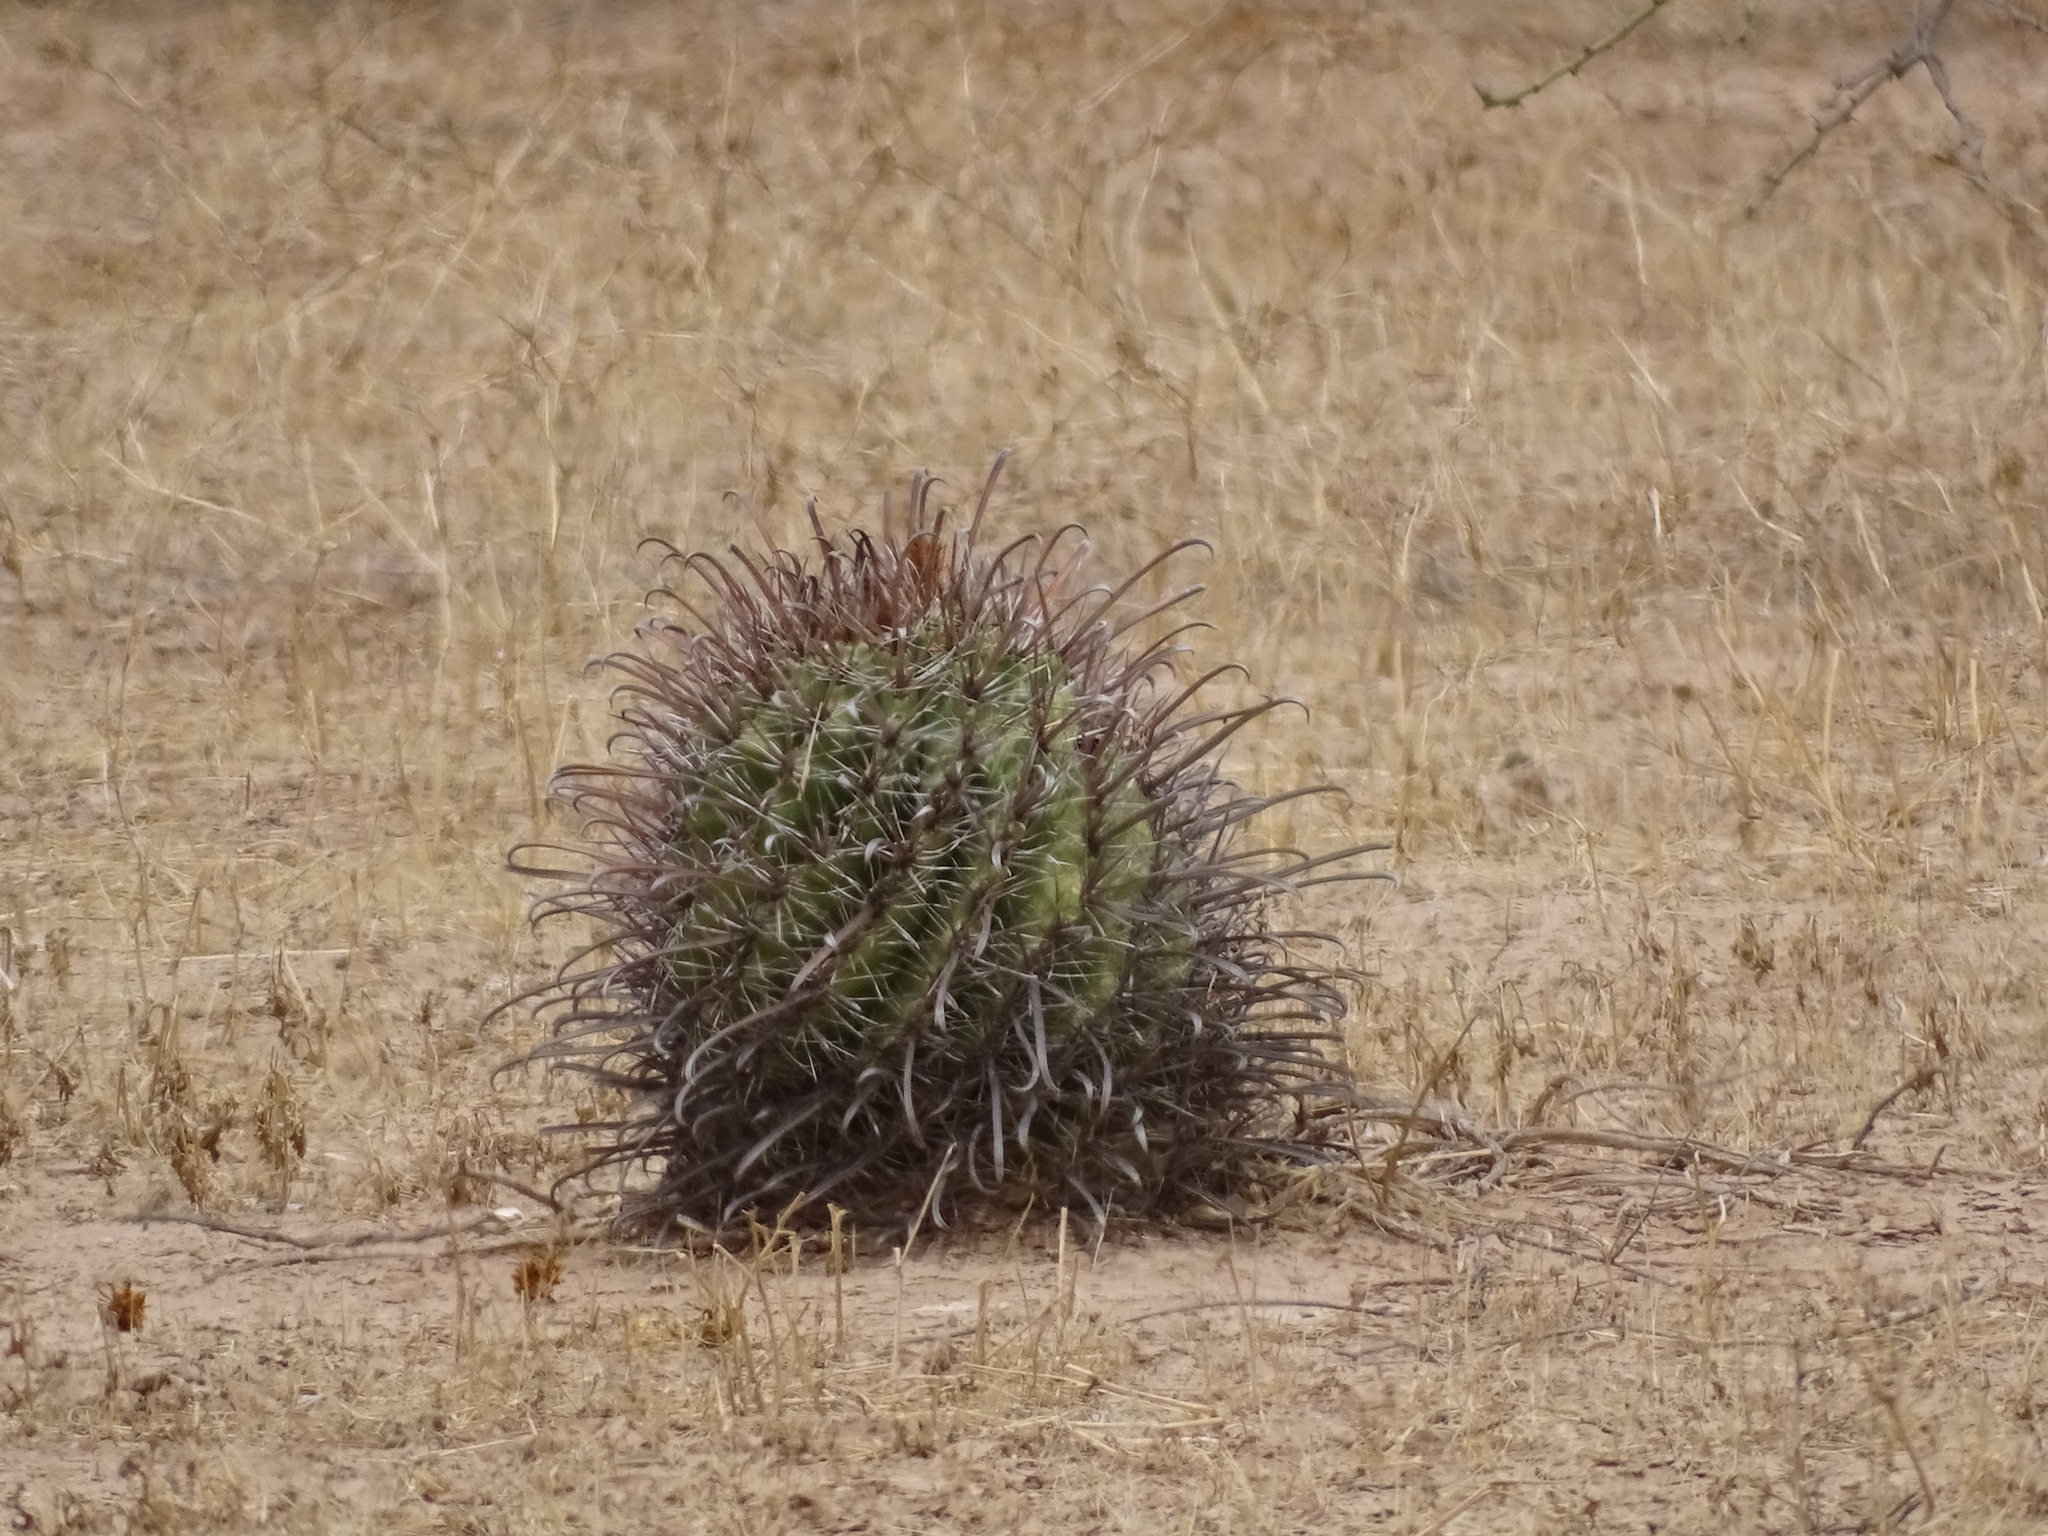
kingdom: Plantae
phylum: Tracheophyta
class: Magnoliopsida
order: Caryophyllales
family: Cactaceae
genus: Ferocactus
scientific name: Ferocactus wislizeni
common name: Candy barrel cactus
